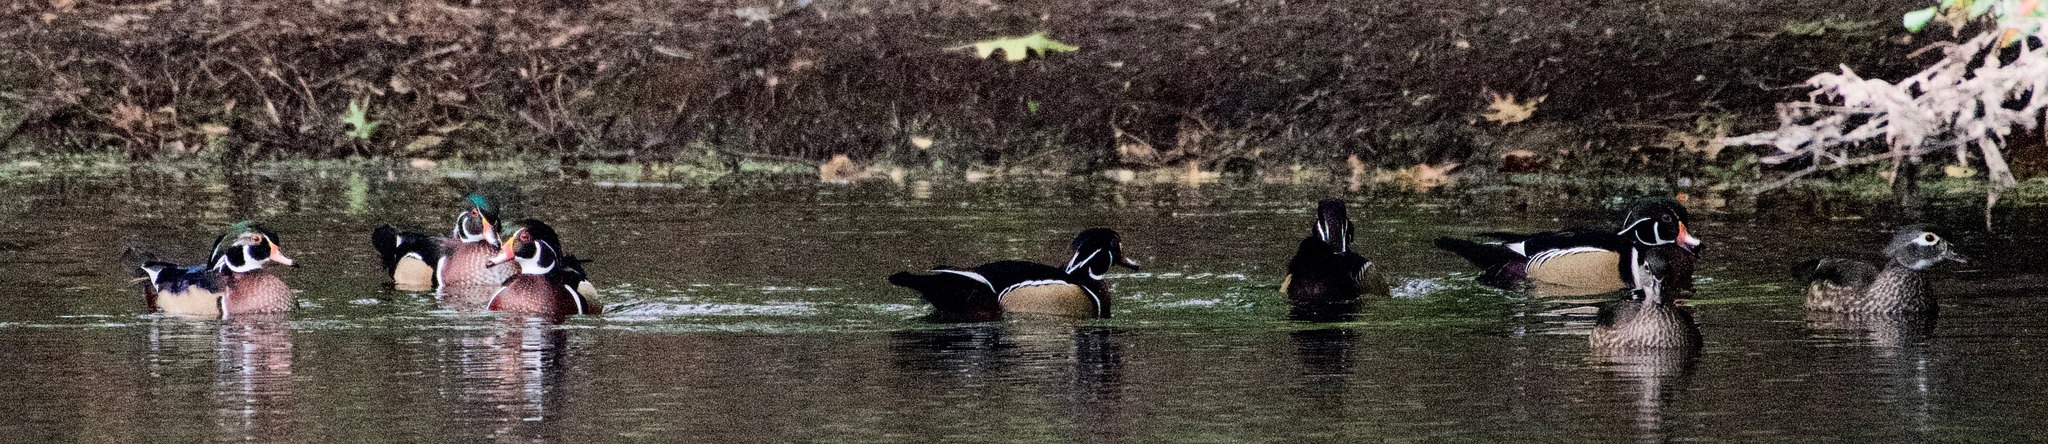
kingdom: Animalia
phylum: Chordata
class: Aves
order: Anseriformes
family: Anatidae
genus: Aix
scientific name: Aix sponsa
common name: Wood duck
